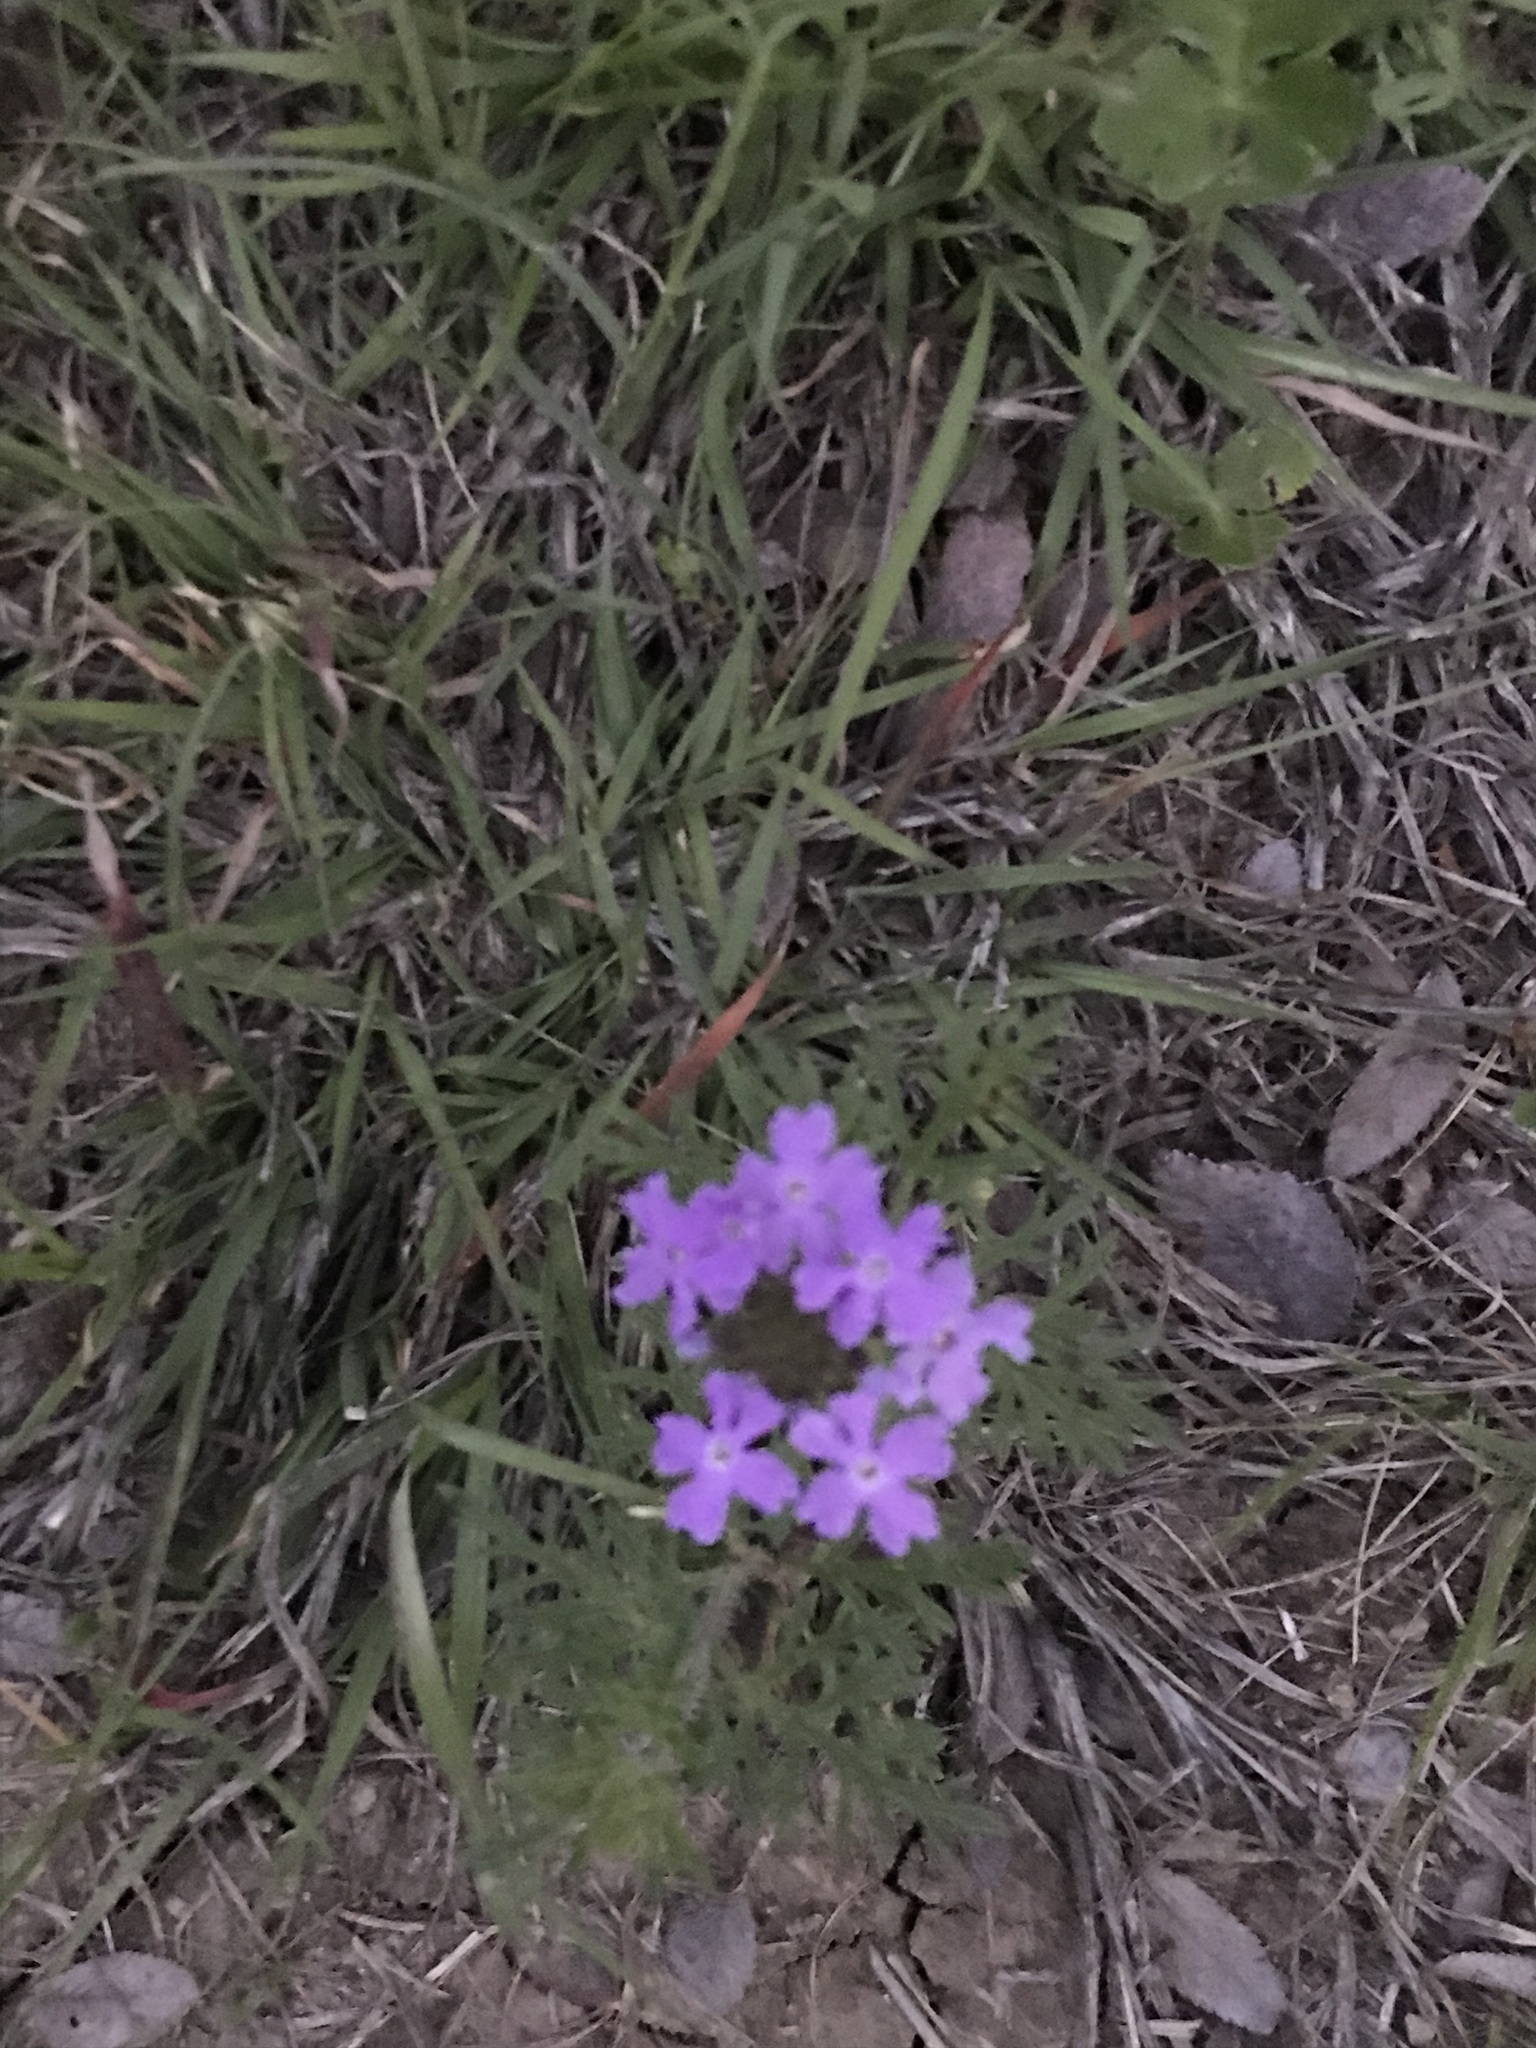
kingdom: Plantae
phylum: Tracheophyta
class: Magnoliopsida
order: Lamiales
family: Verbenaceae
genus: Verbena
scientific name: Verbena bipinnatifida
